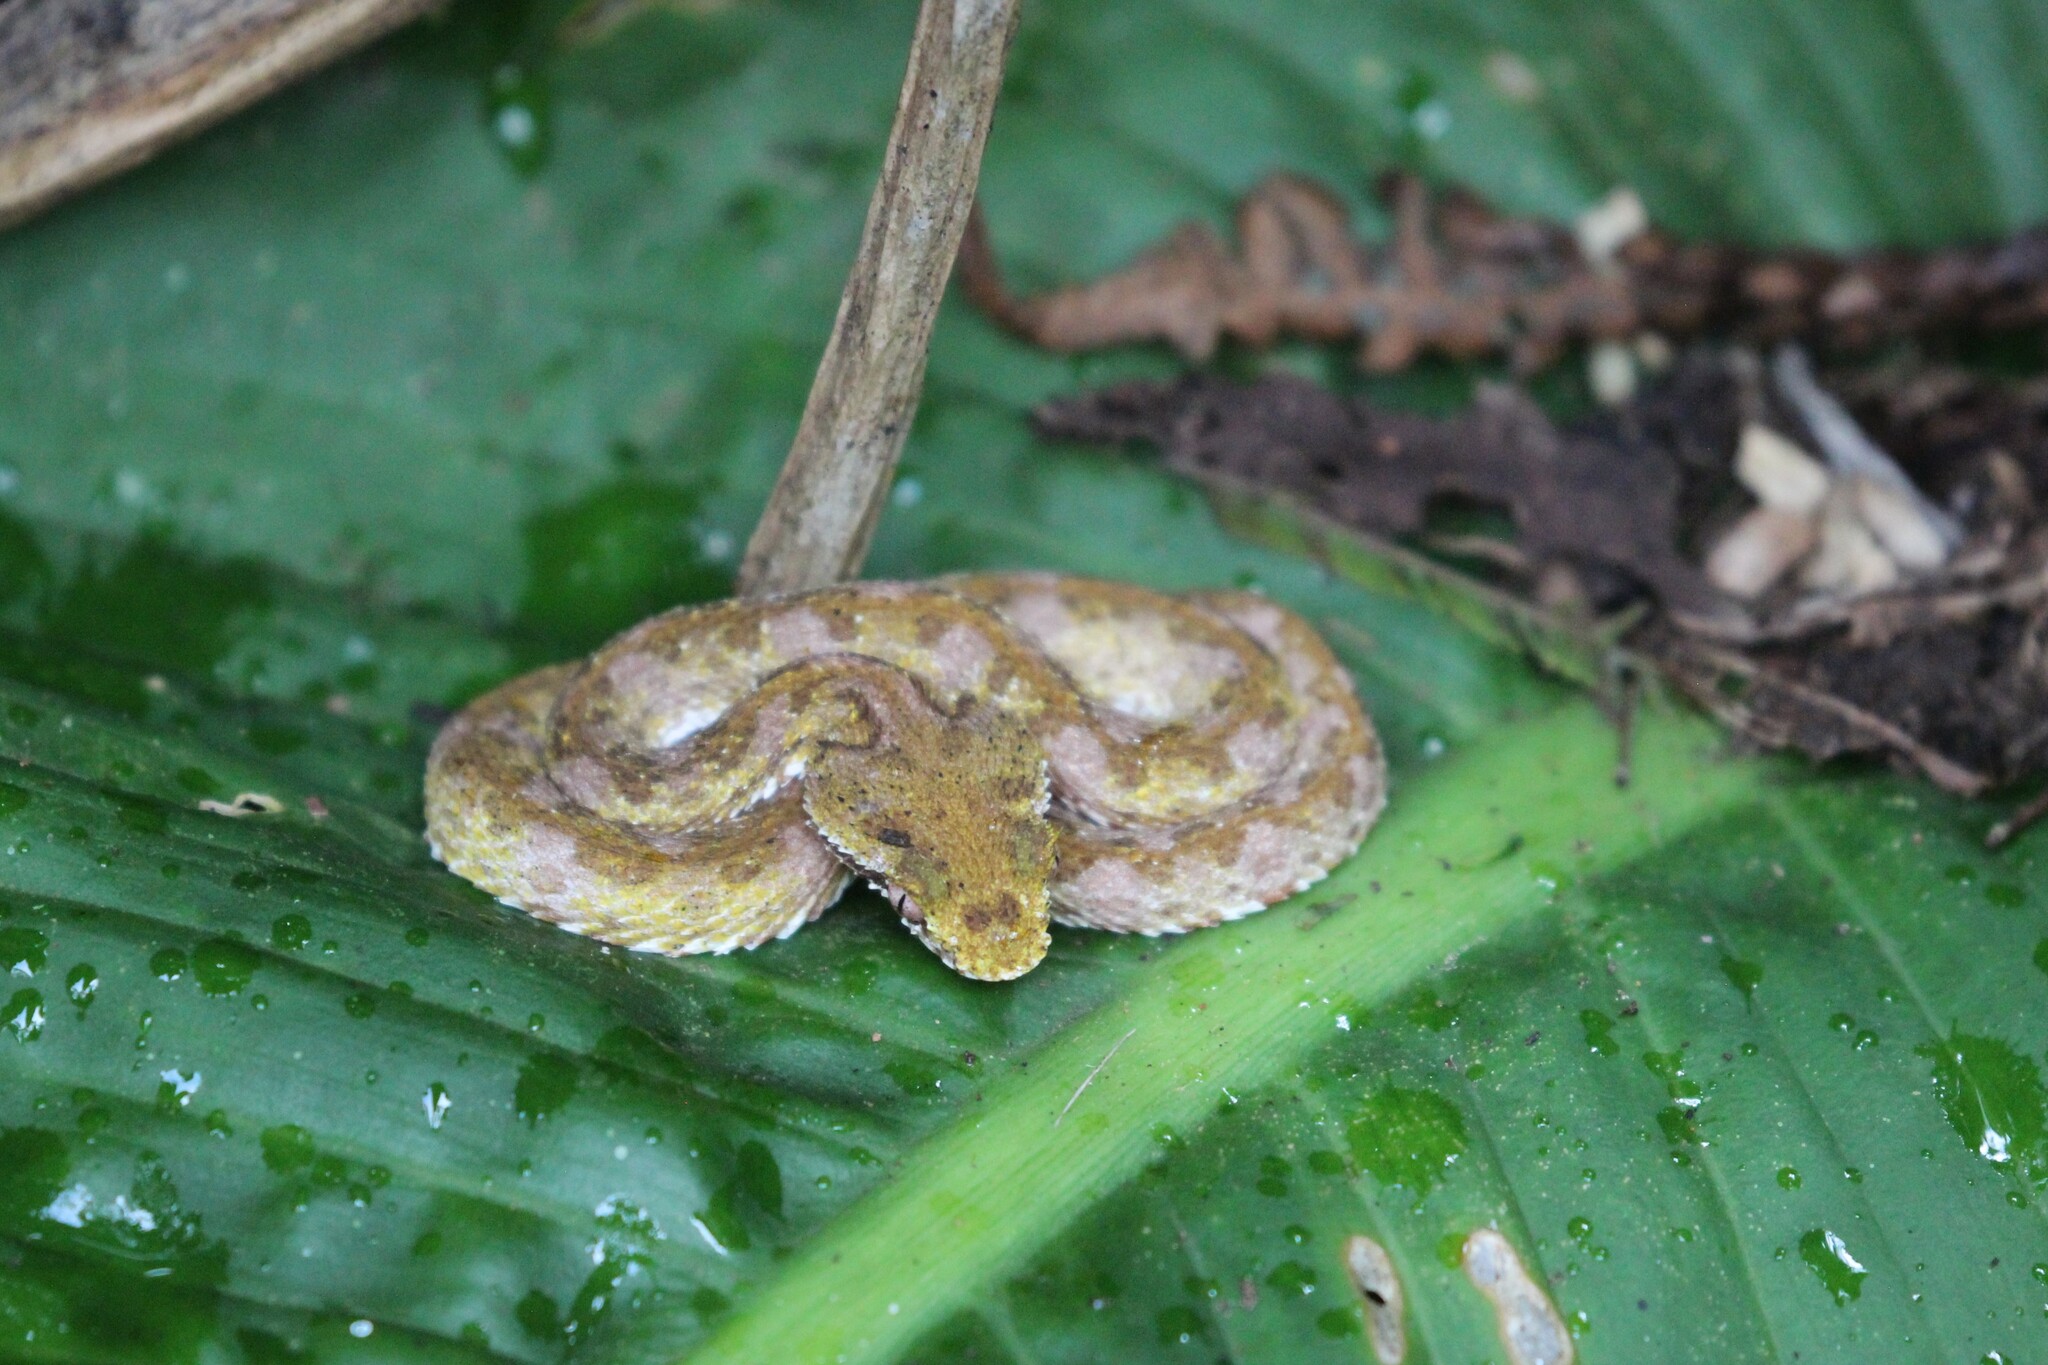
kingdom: Animalia
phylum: Chordata
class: Squamata
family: Viperidae
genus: Bothriechis
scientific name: Bothriechis schlegelii
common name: Eyelash viper
